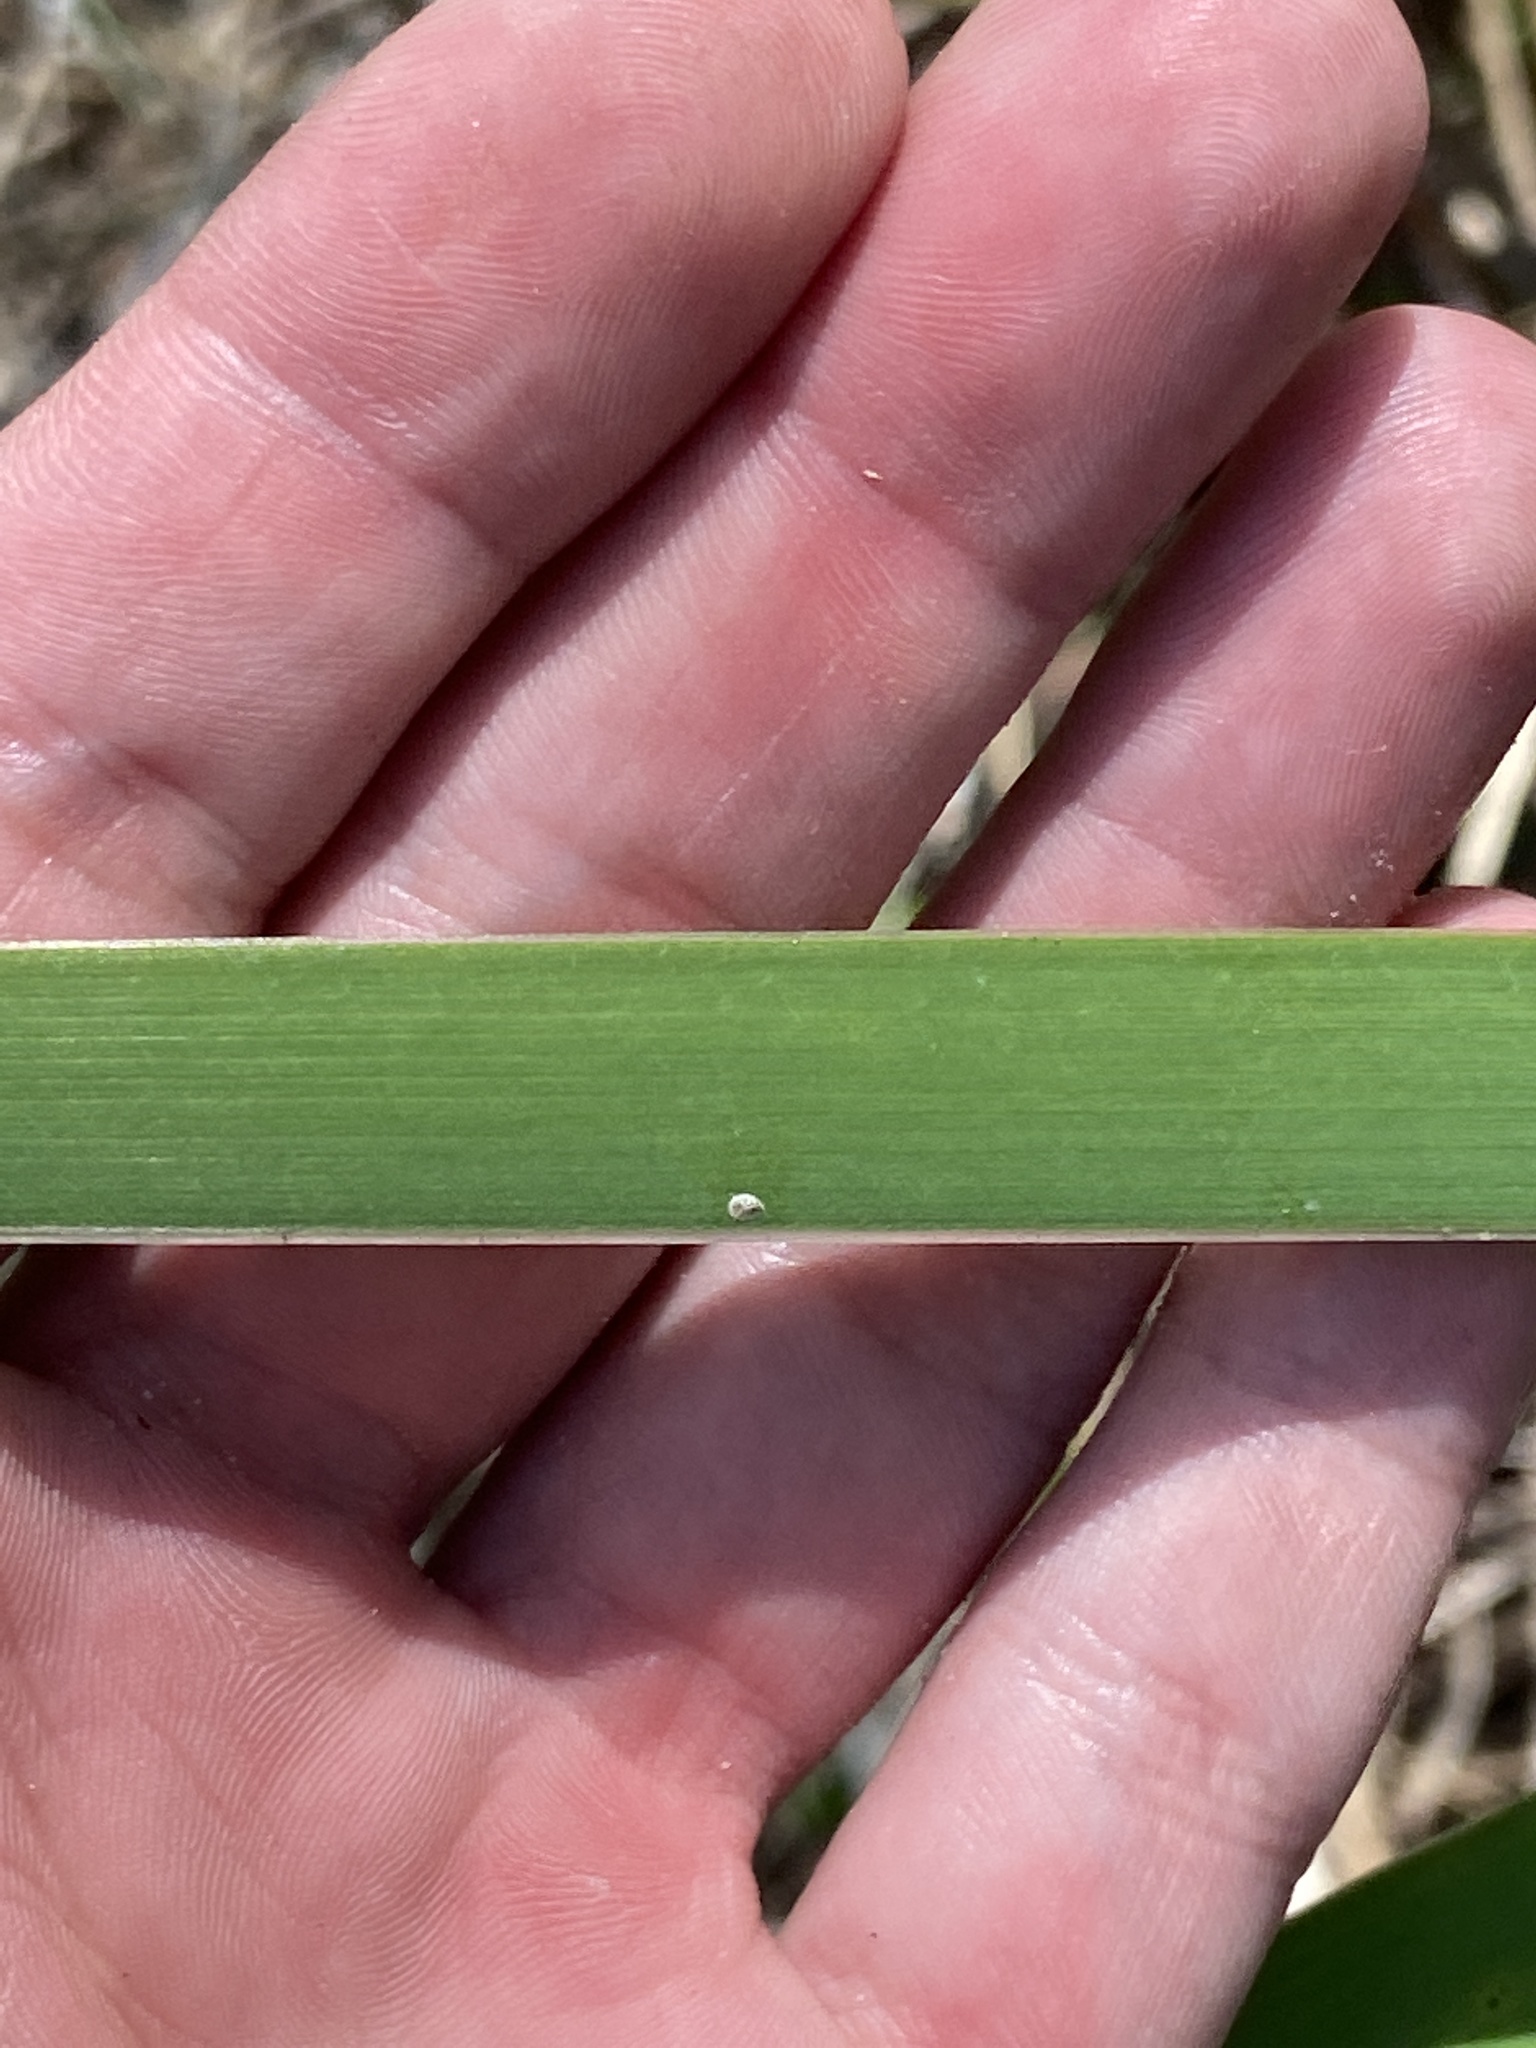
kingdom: Plantae
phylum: Tracheophyta
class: Liliopsida
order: Asparagales
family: Iridaceae
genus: Iris
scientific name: Iris savannarum
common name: Prairie iris
